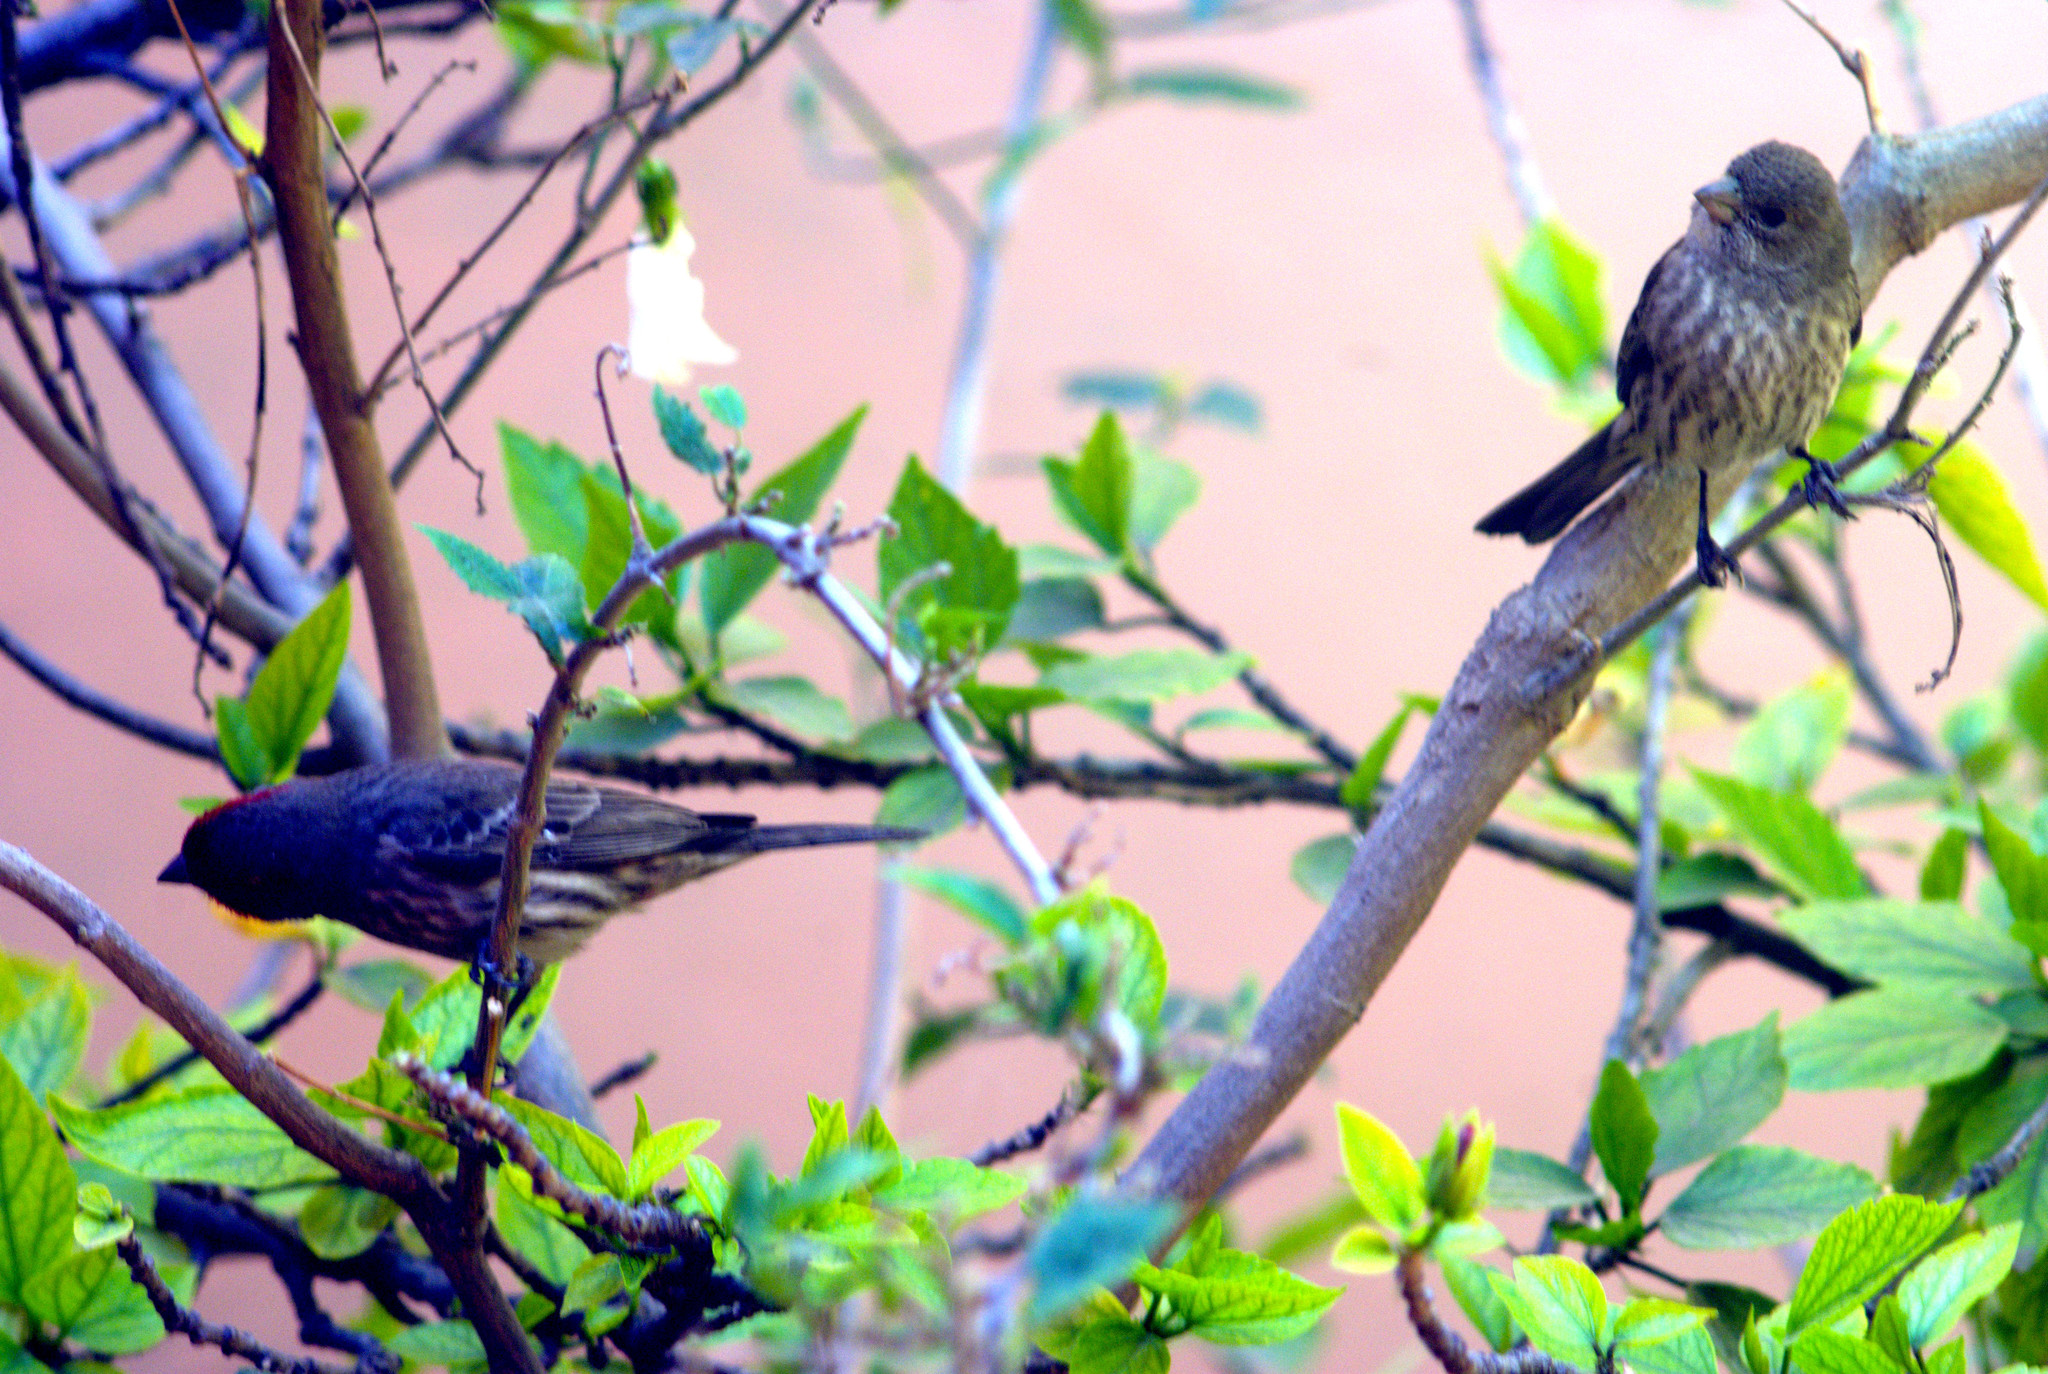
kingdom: Animalia
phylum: Chordata
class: Aves
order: Passeriformes
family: Fringillidae
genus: Haemorhous
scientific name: Haemorhous mexicanus
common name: House finch
